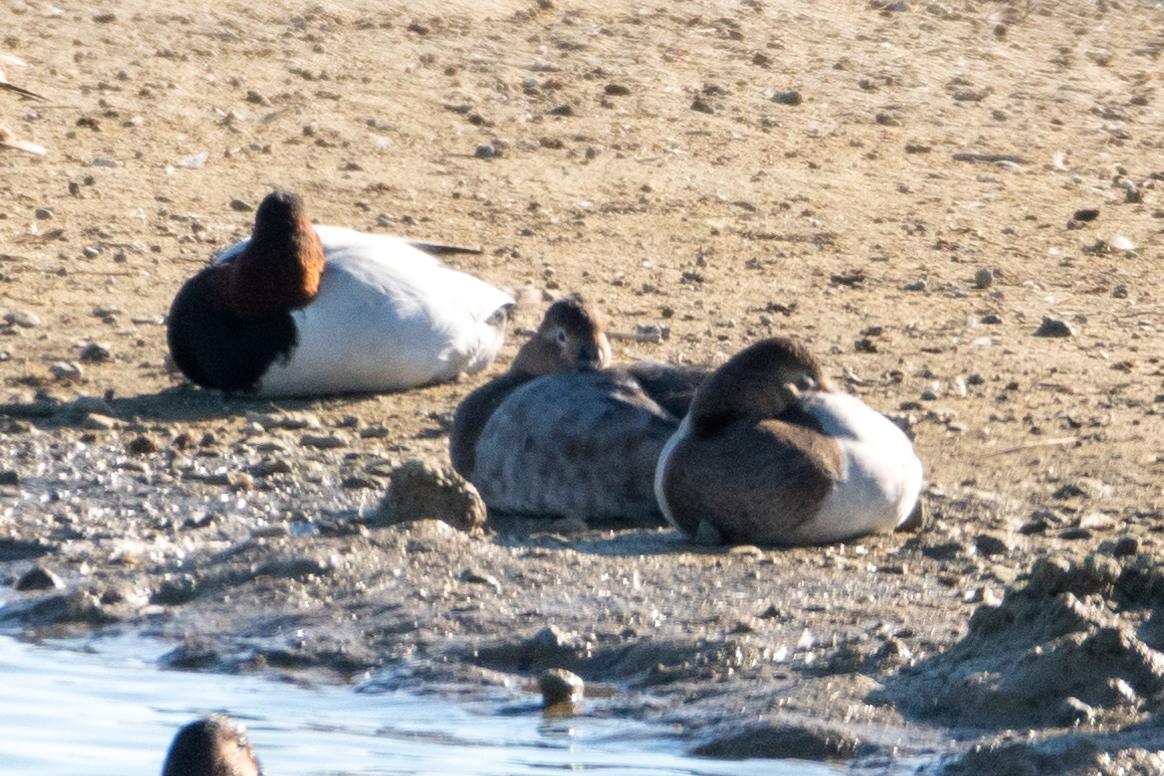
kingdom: Animalia
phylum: Chordata
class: Aves
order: Anseriformes
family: Anatidae
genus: Aythya
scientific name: Aythya valisineria
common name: Canvasback
